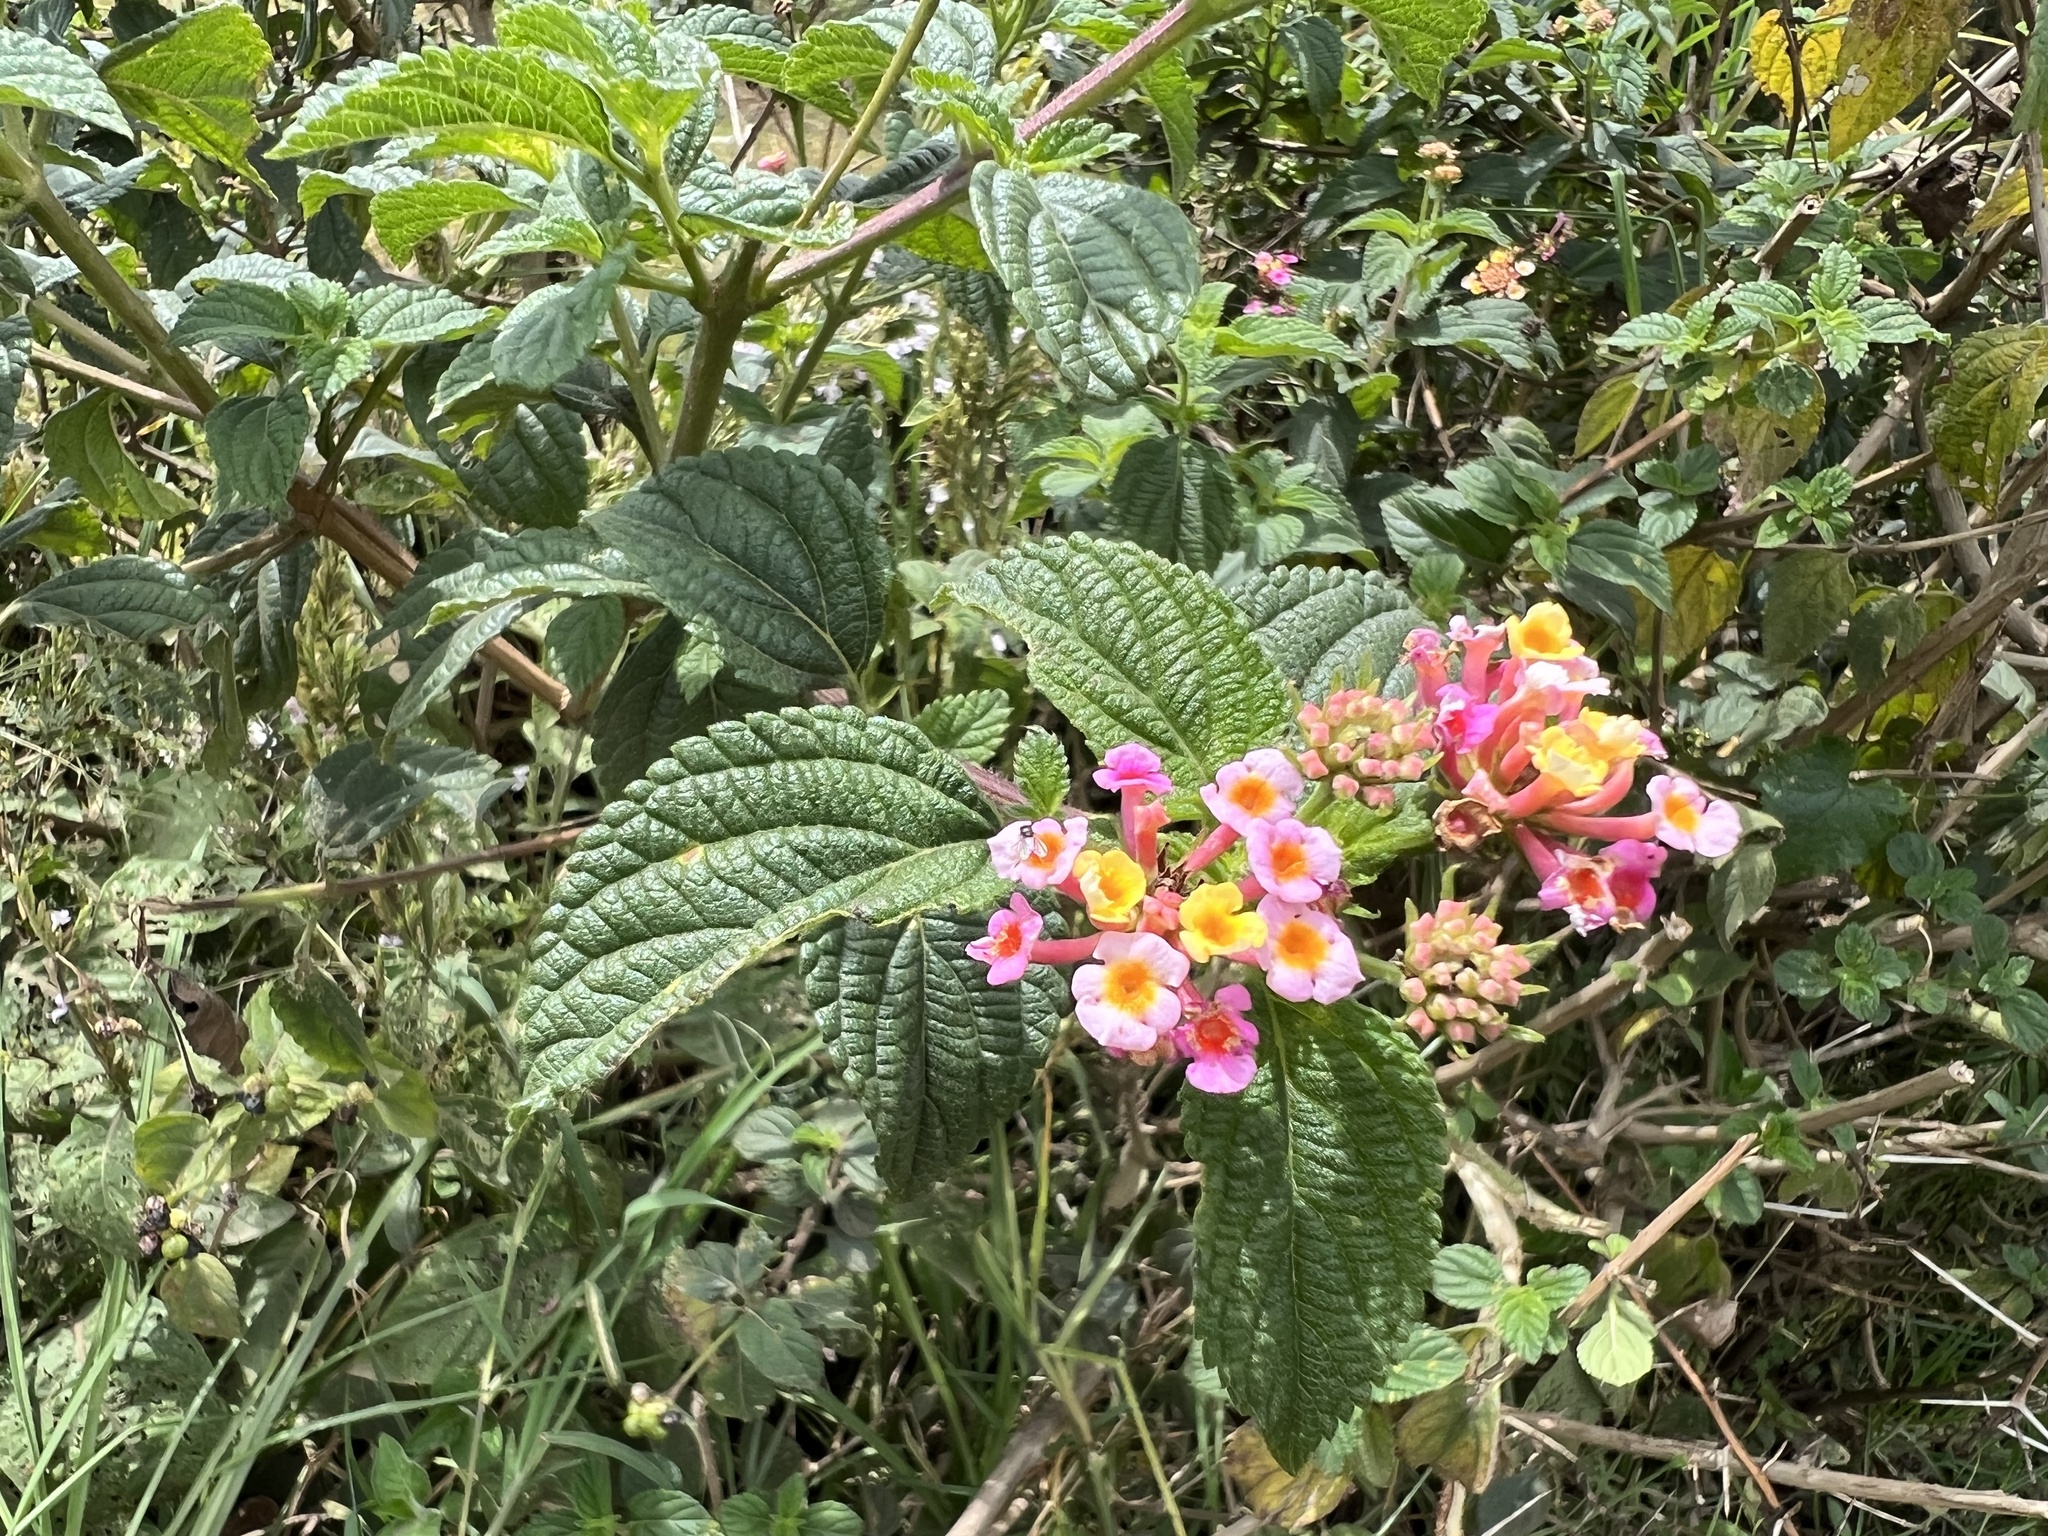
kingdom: Plantae
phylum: Tracheophyta
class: Magnoliopsida
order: Lamiales
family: Verbenaceae
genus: Lantana
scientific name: Lantana camara
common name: Lantana
